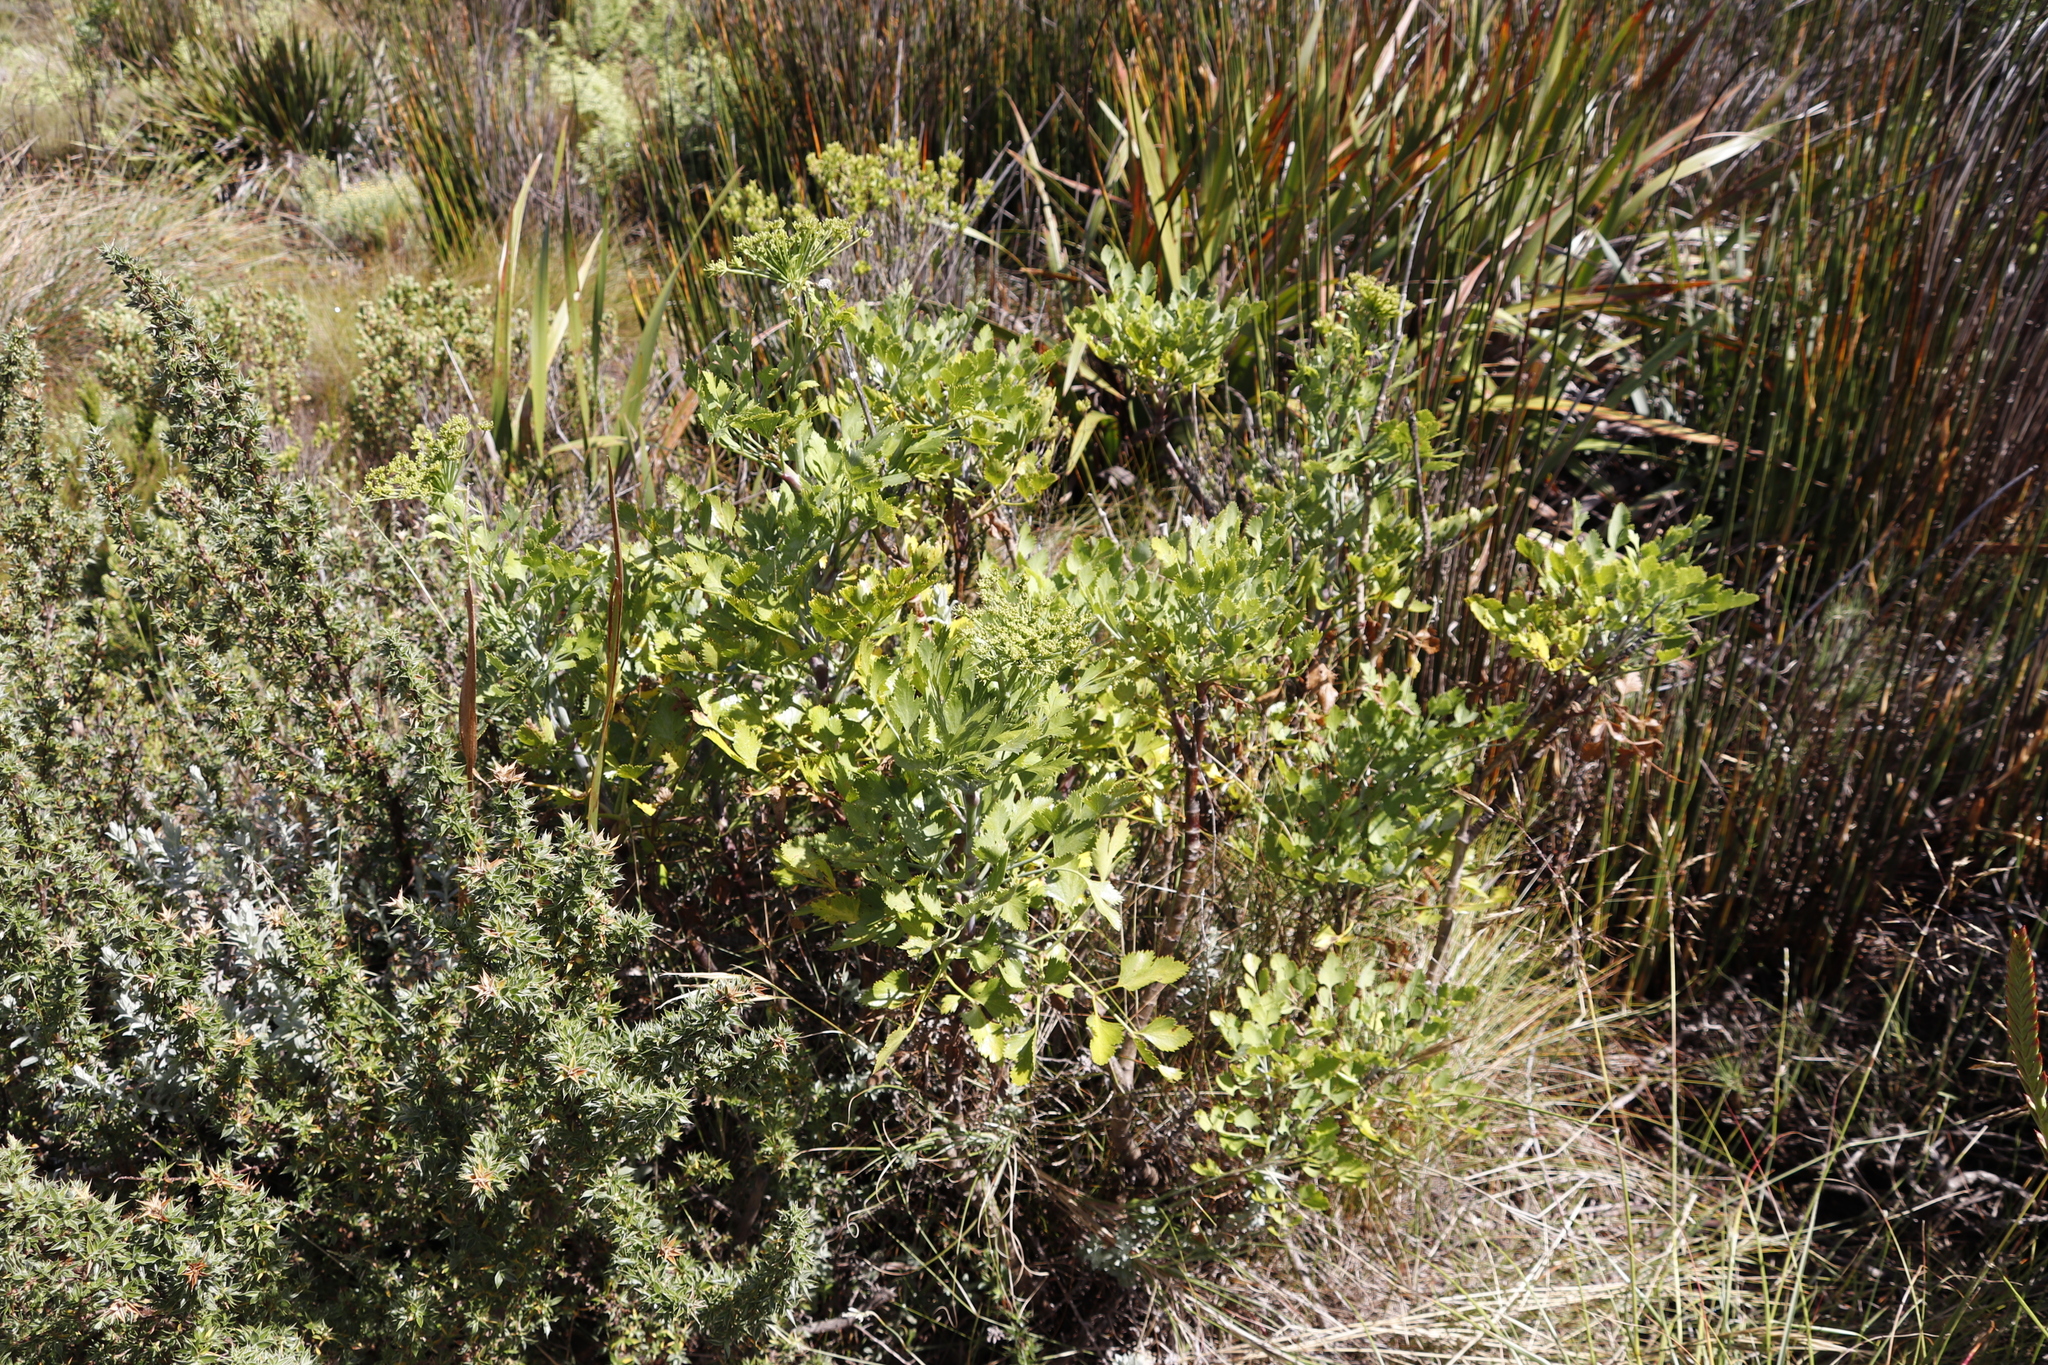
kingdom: Plantae
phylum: Tracheophyta
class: Magnoliopsida
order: Apiales
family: Apiaceae
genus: Notobubon
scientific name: Notobubon galbanum
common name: Blisterbush
